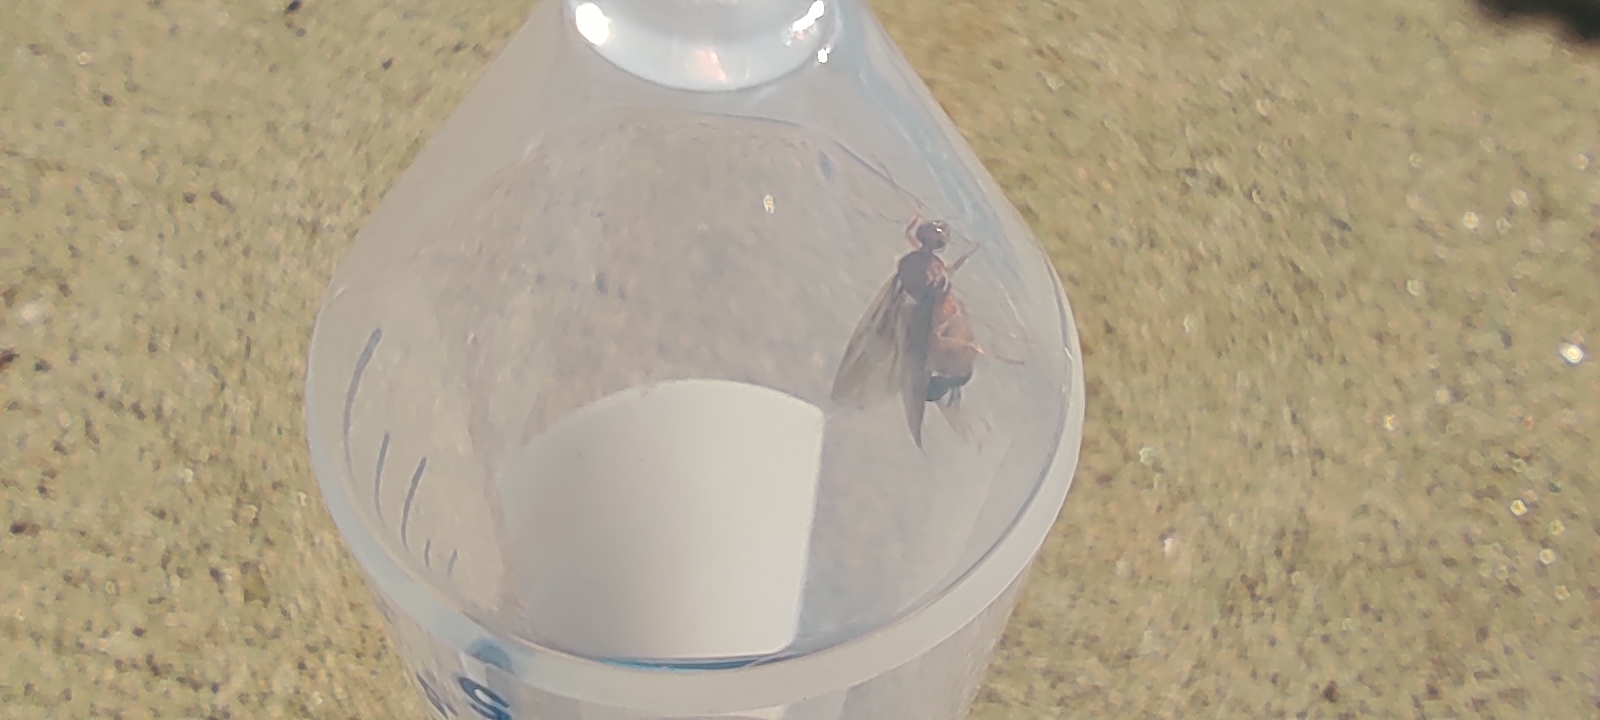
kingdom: Animalia
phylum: Arthropoda
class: Insecta
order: Hymenoptera
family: Formicidae
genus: Prenolepis
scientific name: Prenolepis imparis
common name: Small honey ant
